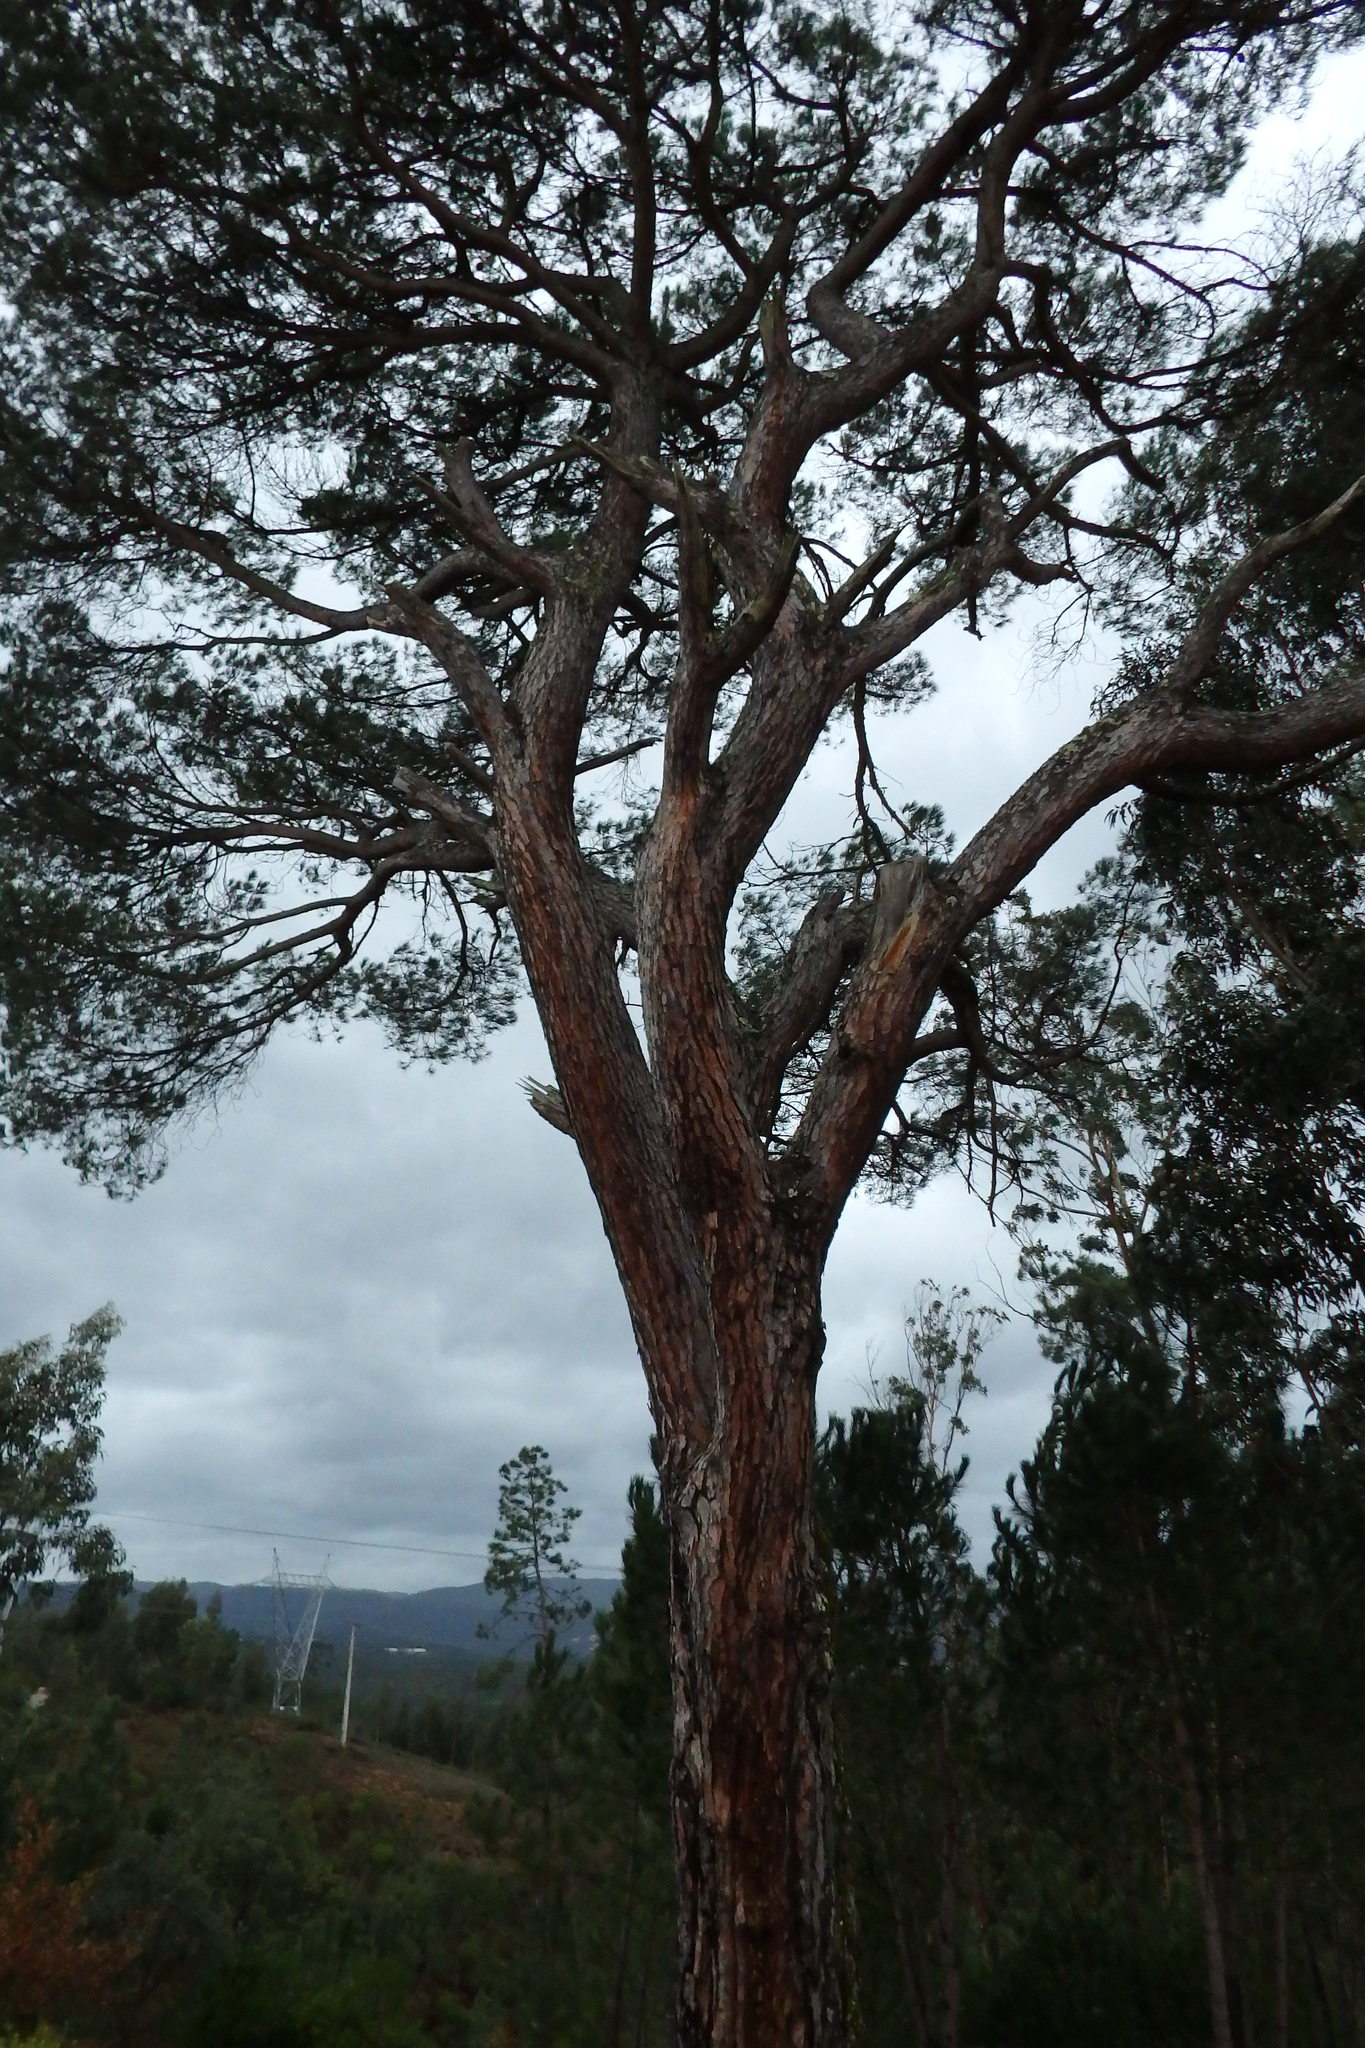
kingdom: Plantae
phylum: Tracheophyta
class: Pinopsida
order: Pinales
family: Pinaceae
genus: Pinus
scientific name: Pinus pinea
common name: Italian stone pine
